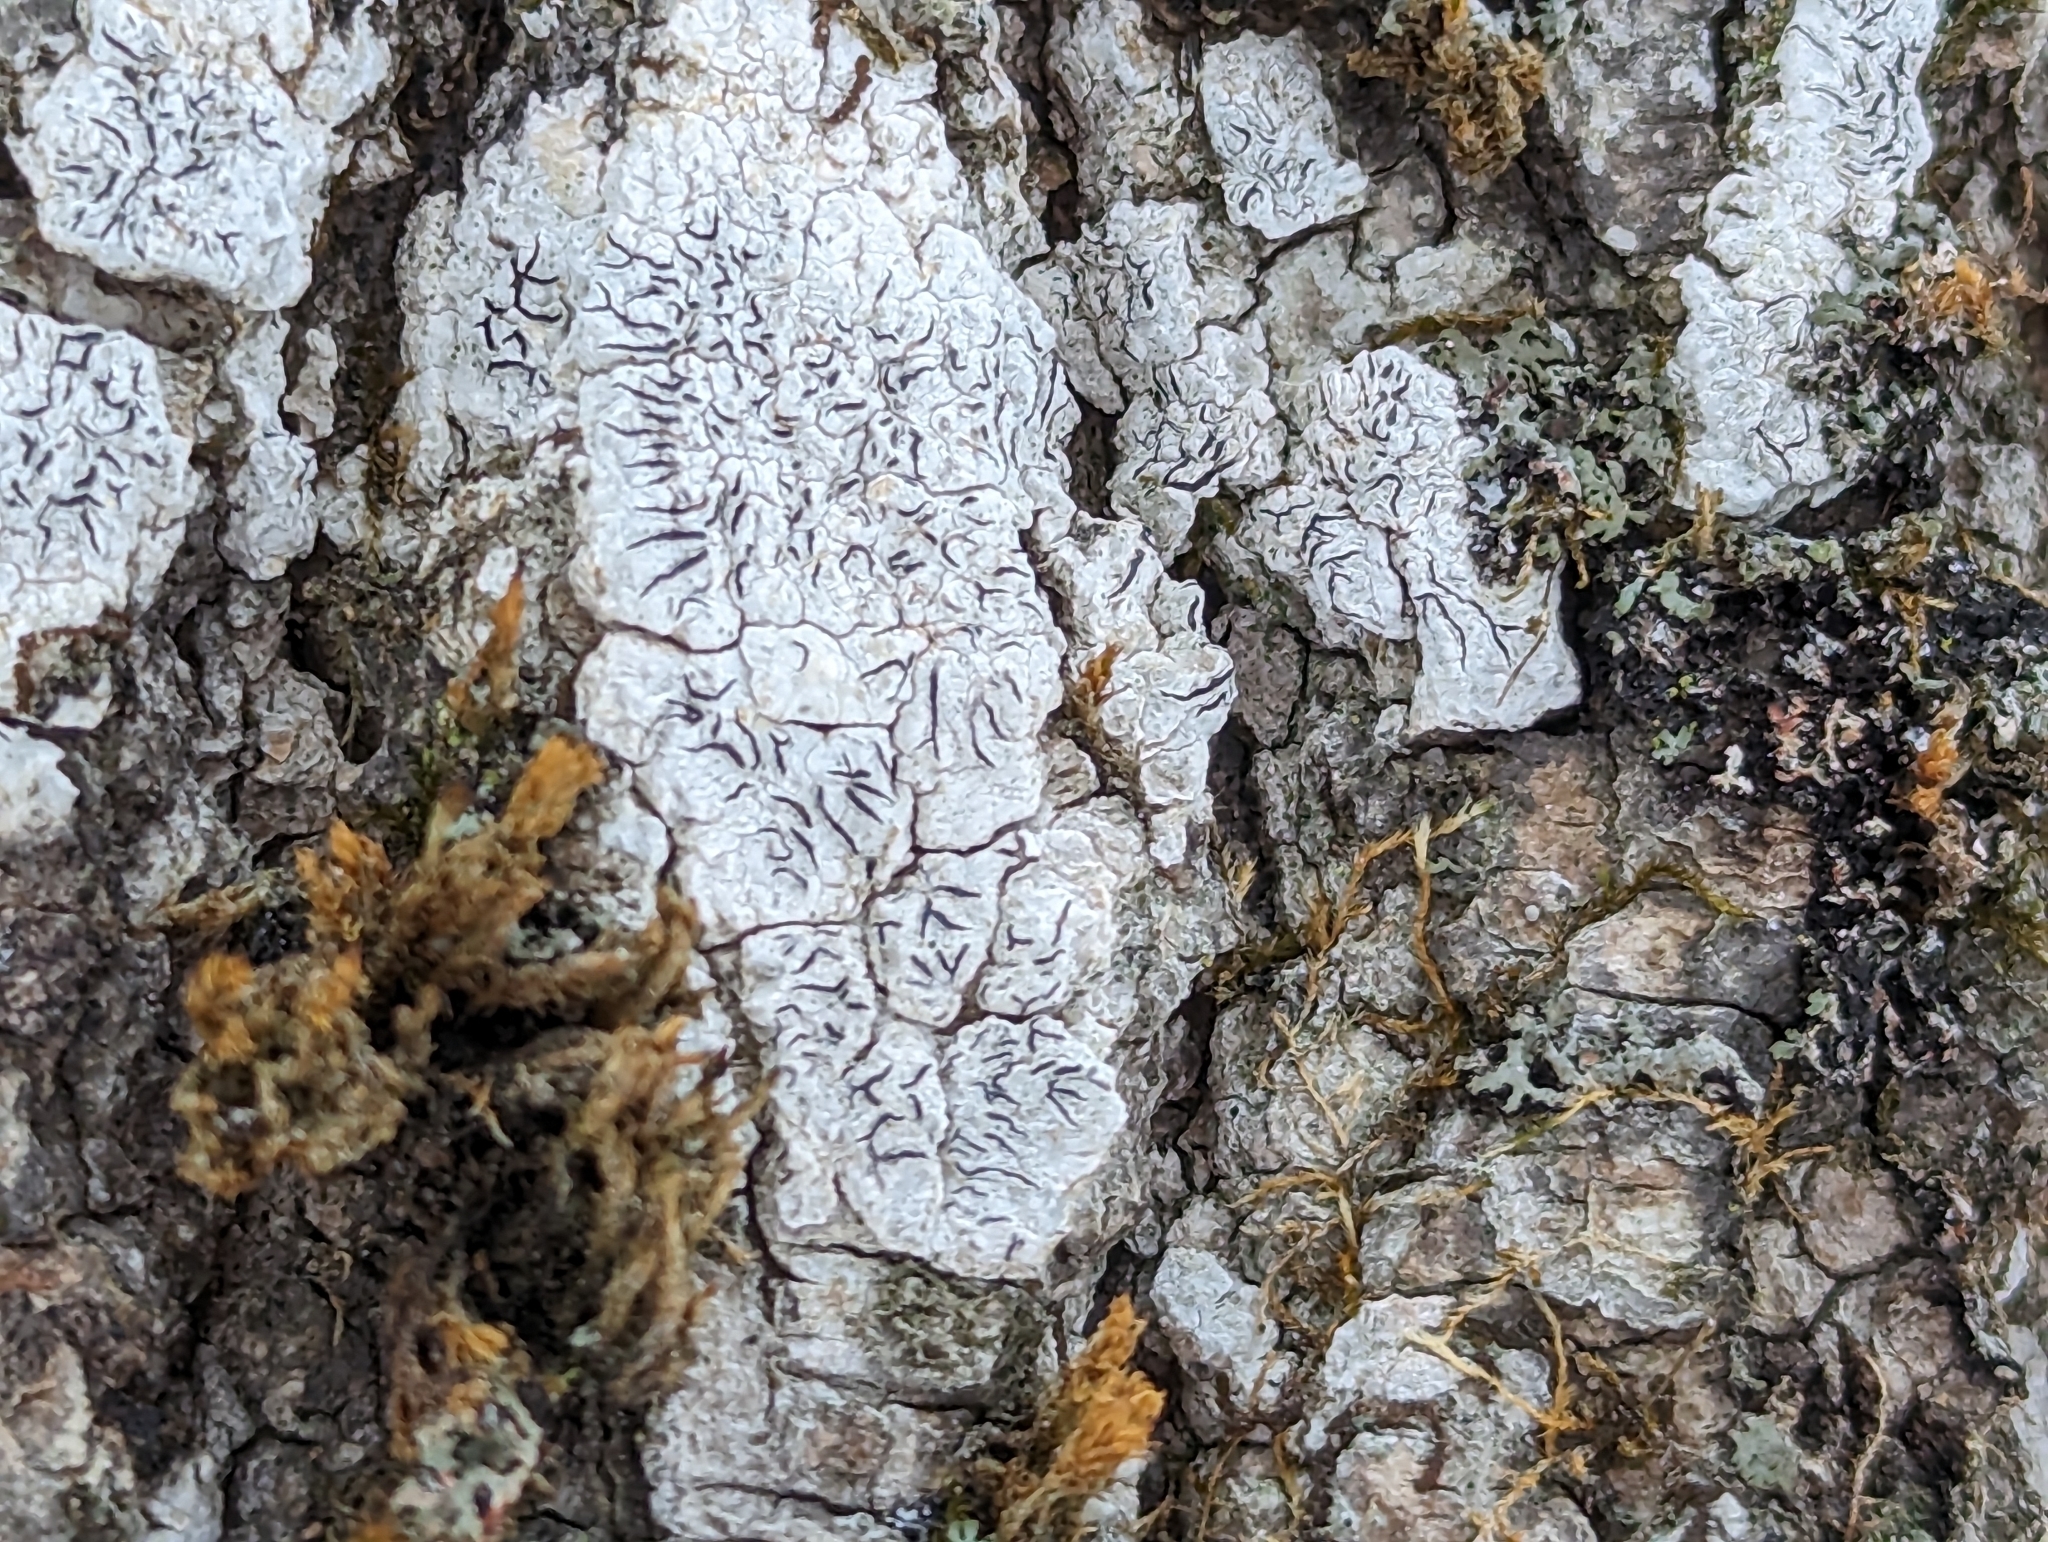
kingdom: Fungi
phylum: Ascomycota
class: Lecanoromycetes
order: Ostropales
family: Graphidaceae
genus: Graphis
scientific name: Graphis scripta
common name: Script lichen
